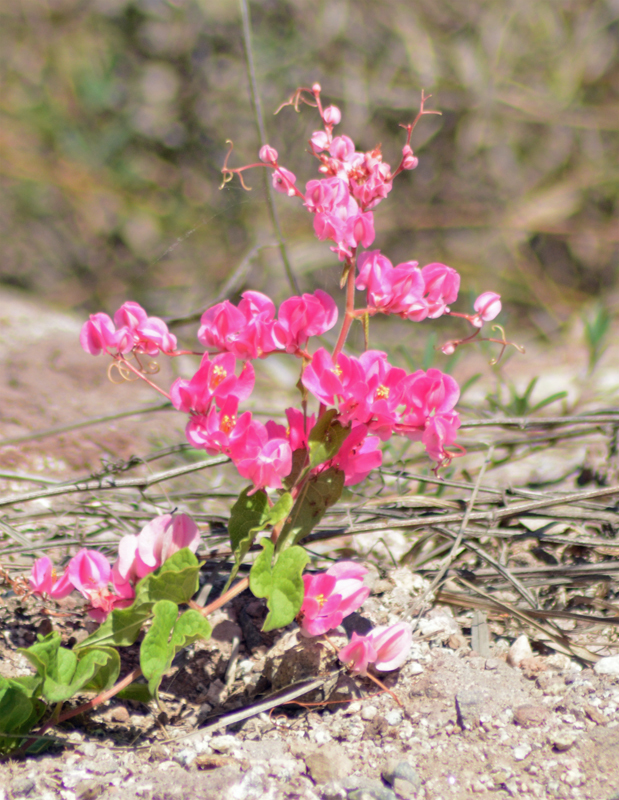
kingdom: Plantae
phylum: Tracheophyta
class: Magnoliopsida
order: Caryophyllales
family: Polygonaceae
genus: Antigonon
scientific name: Antigonon leptopus
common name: Coral vine
